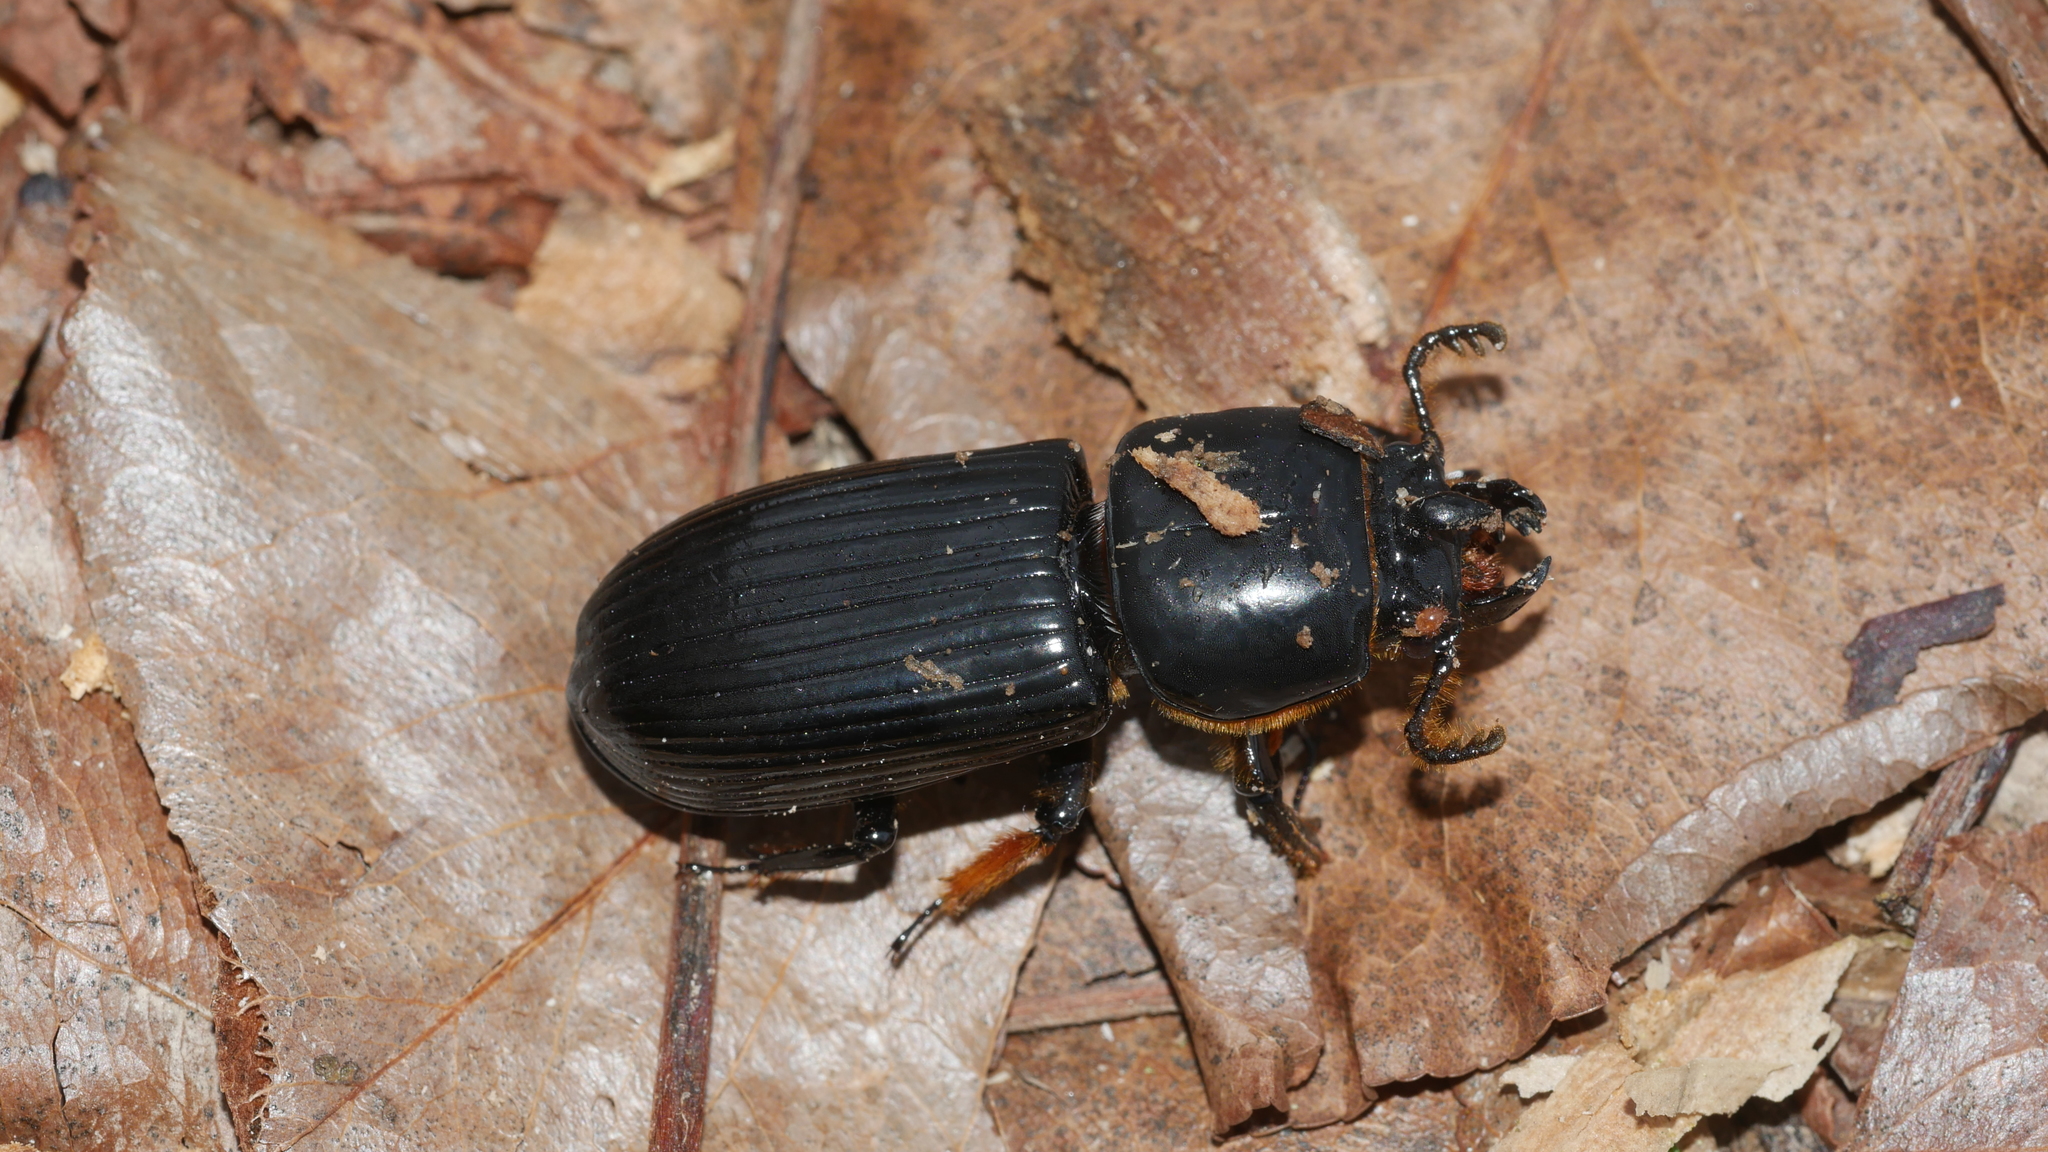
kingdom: Animalia
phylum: Arthropoda
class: Insecta
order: Coleoptera
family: Passalidae
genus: Odontotaenius
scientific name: Odontotaenius disjunctus
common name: Patent leather beetle
